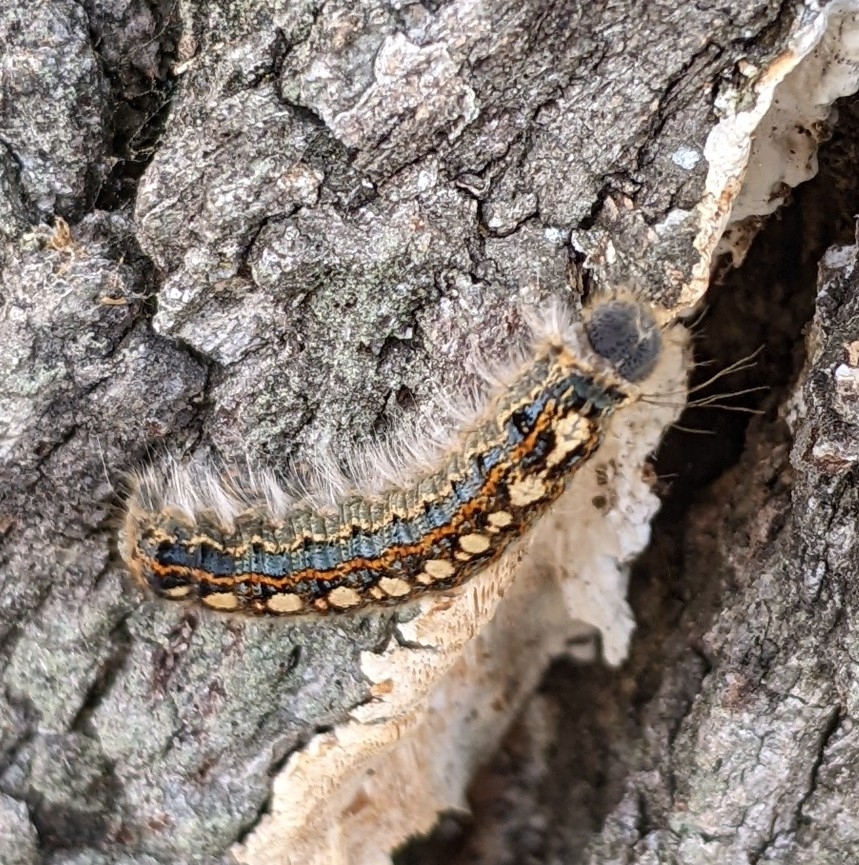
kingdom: Animalia
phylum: Arthropoda
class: Insecta
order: Lepidoptera
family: Lasiocampidae
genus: Malacosoma
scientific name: Malacosoma disstria
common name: Forest tent caterpillar
